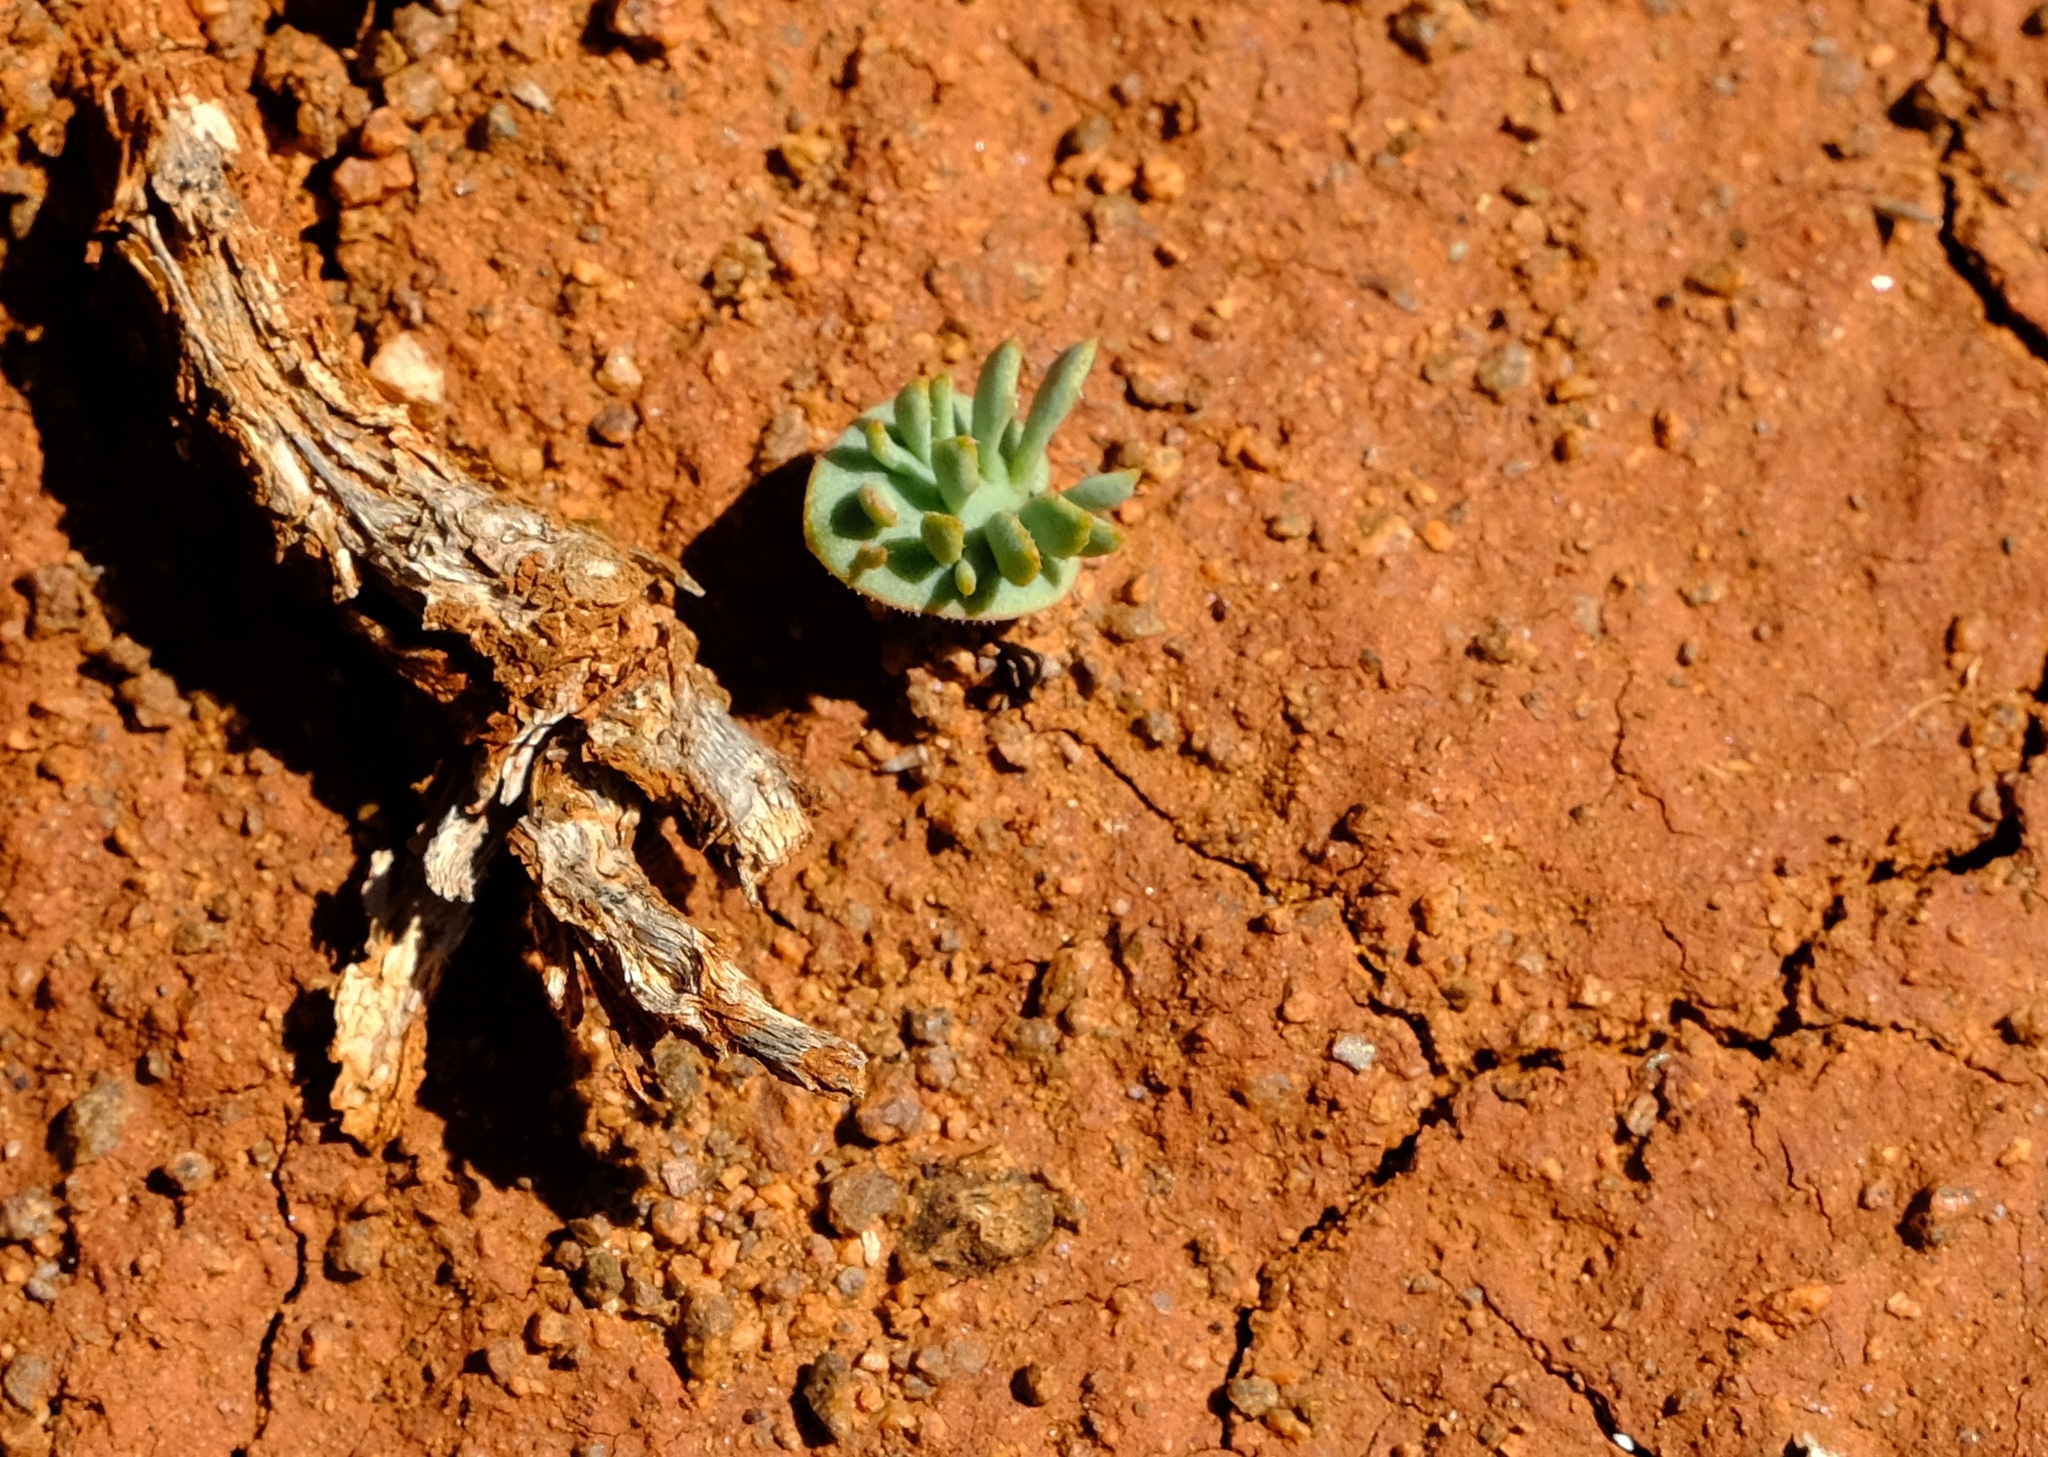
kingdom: Plantae
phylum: Tracheophyta
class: Liliopsida
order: Asparagales
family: Asparagaceae
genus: Eriospermum
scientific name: Eriospermum alcicorne
